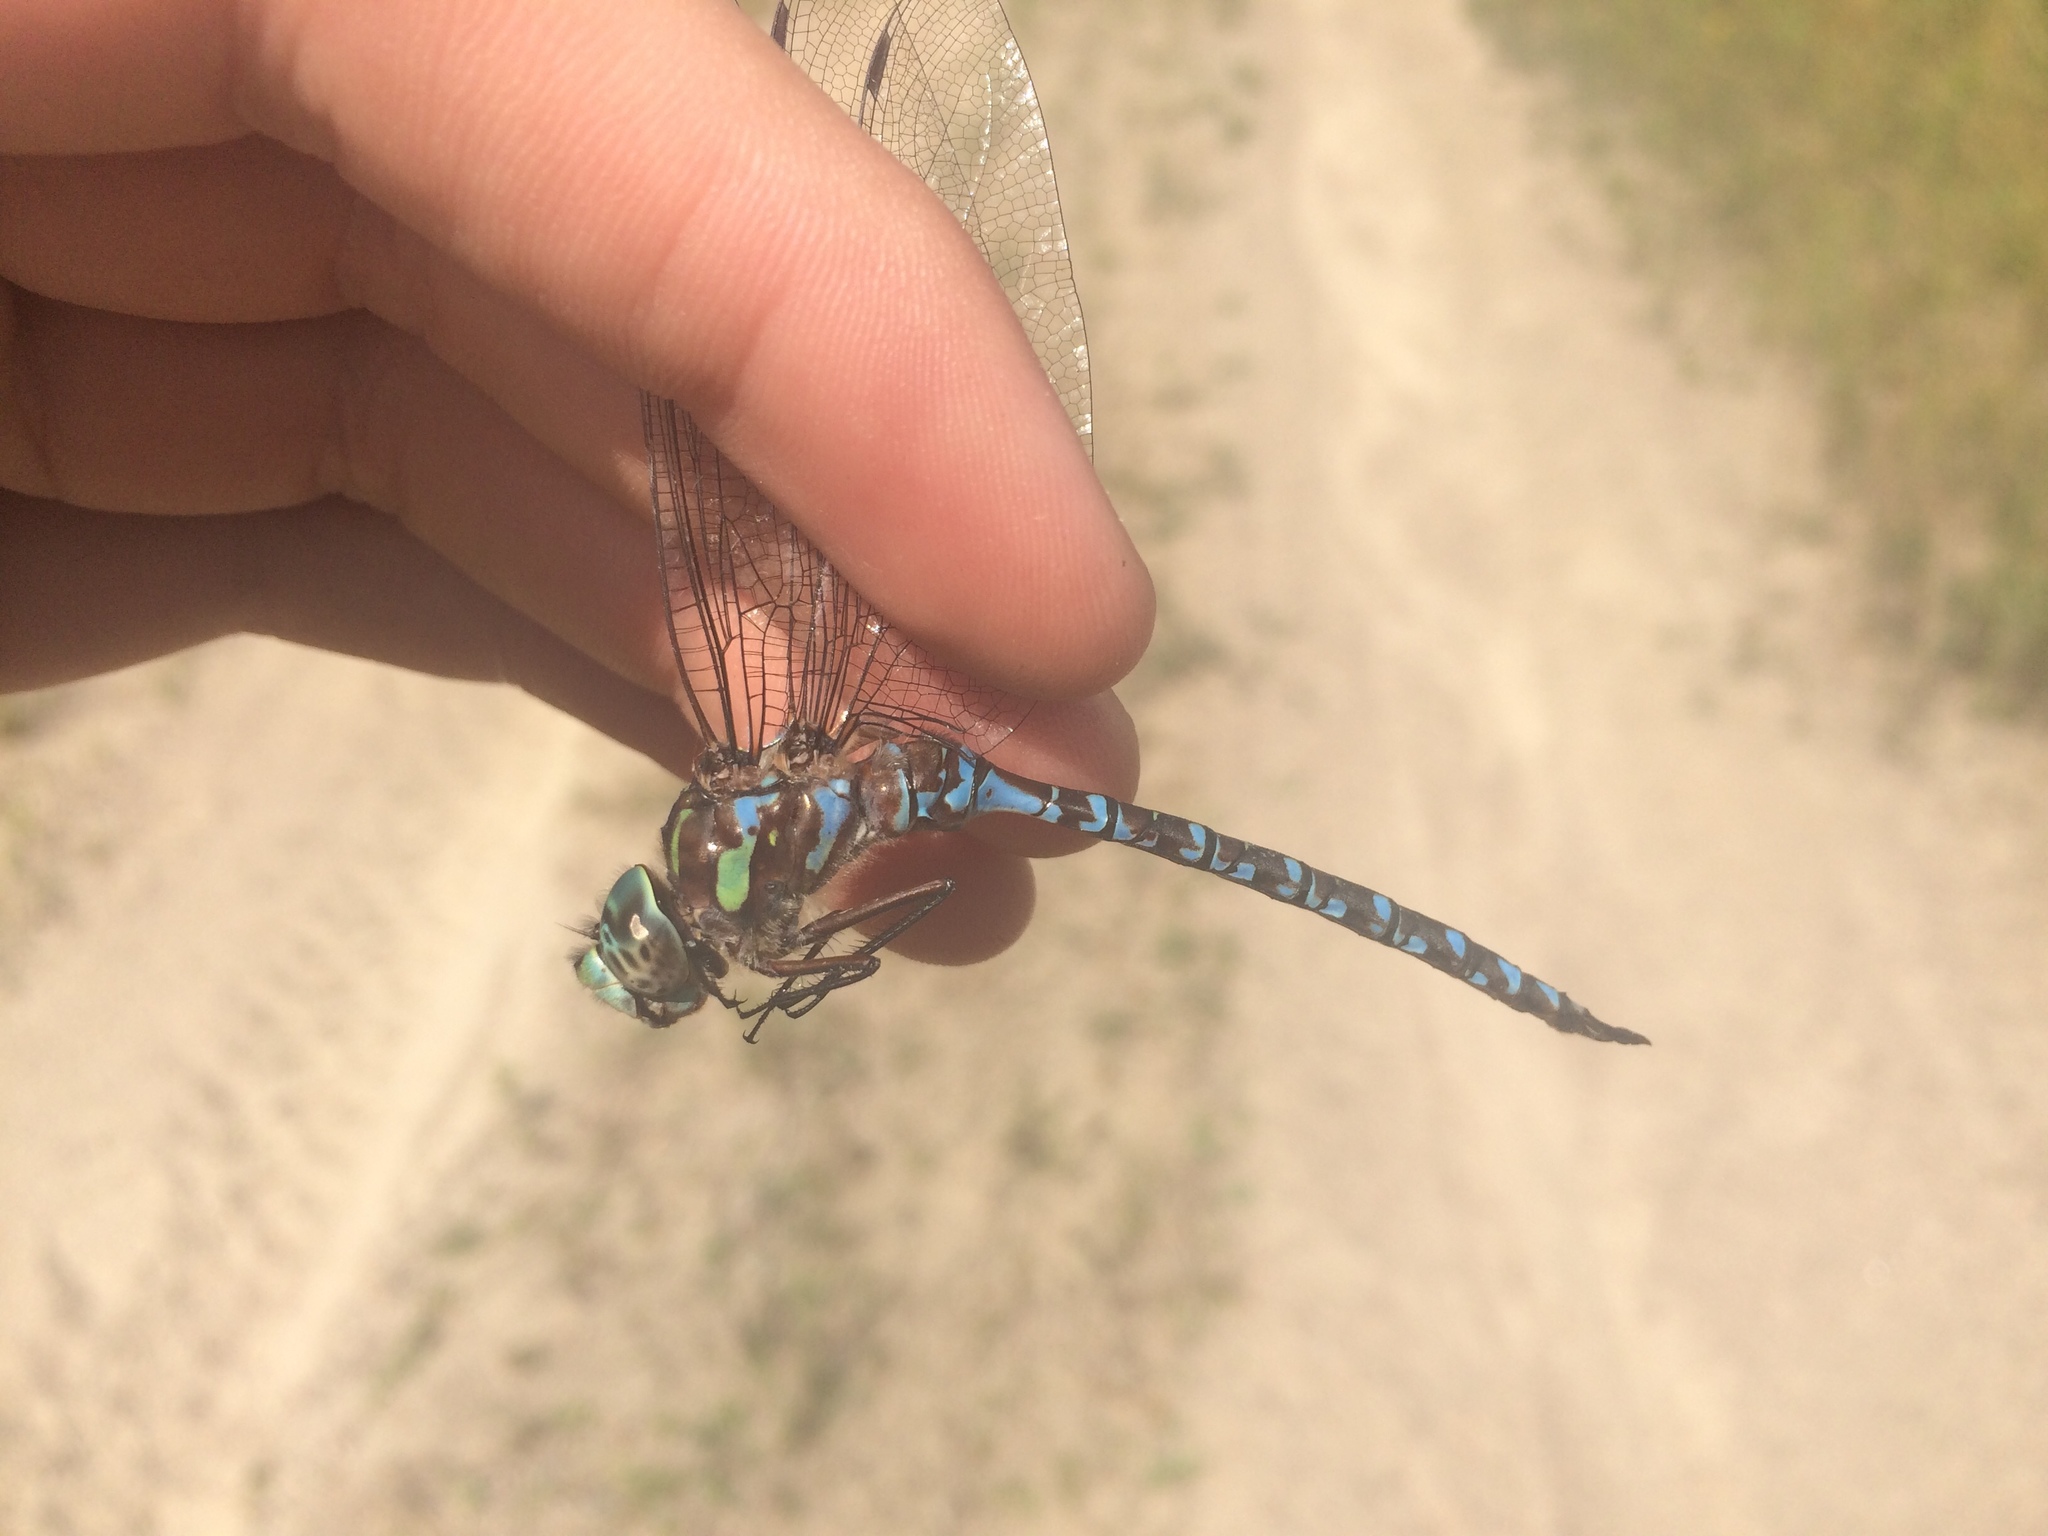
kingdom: Animalia
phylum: Arthropoda
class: Insecta
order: Odonata
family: Aeshnidae
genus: Aeshna
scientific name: Aeshna canadensis
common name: Canada darner
